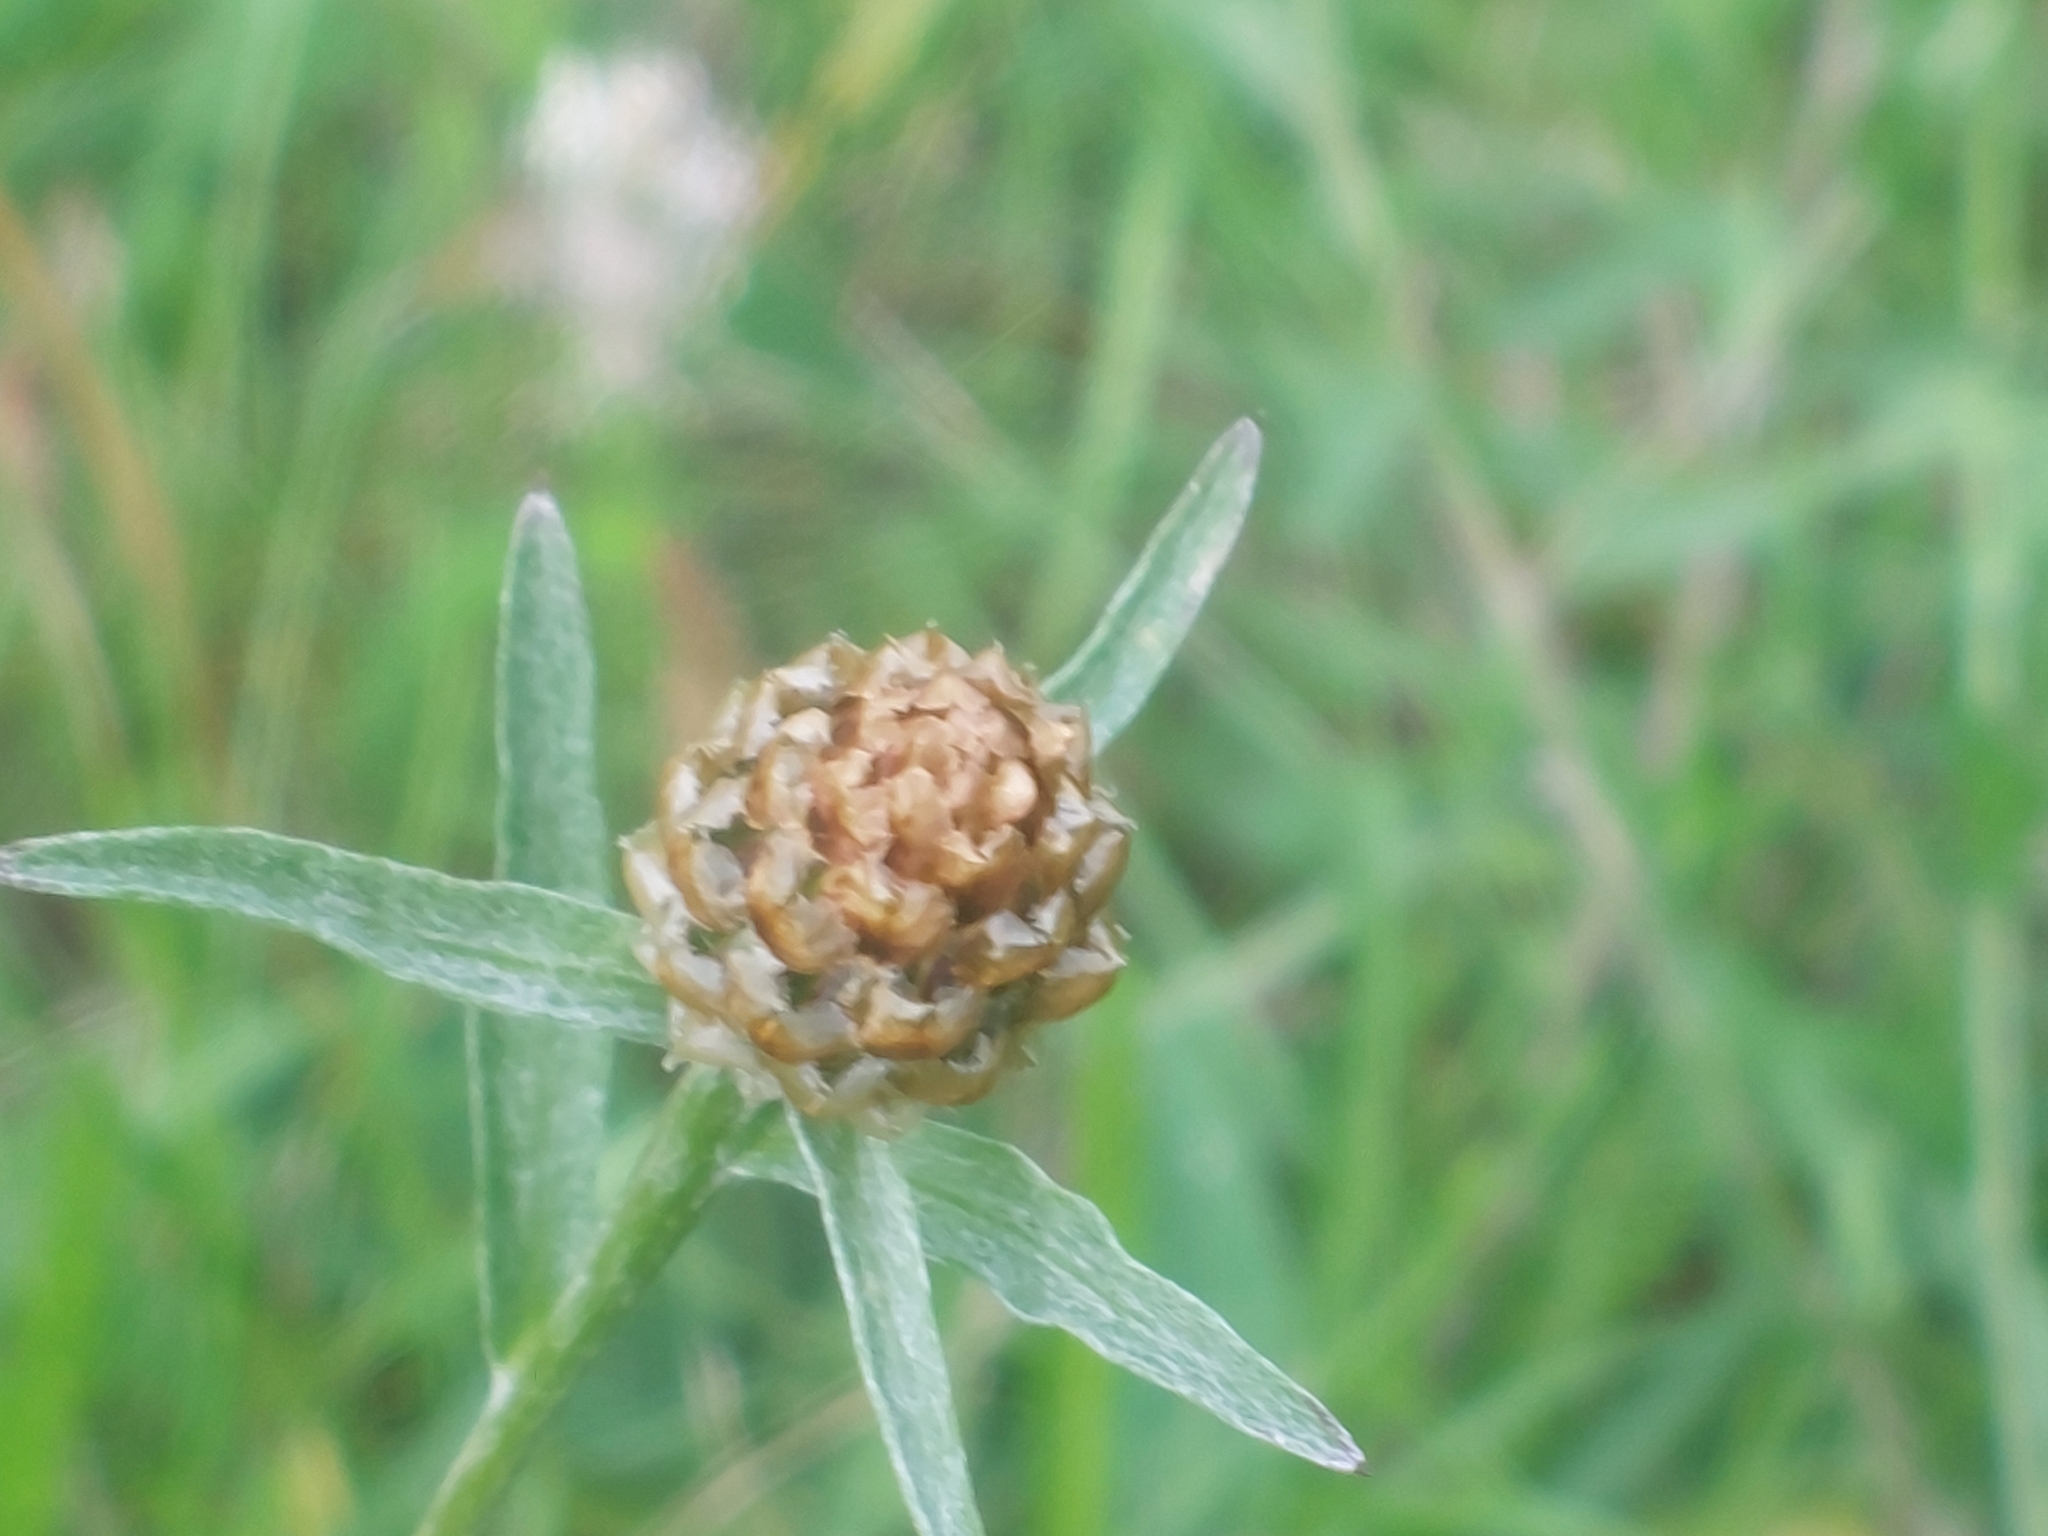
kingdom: Plantae
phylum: Tracheophyta
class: Magnoliopsida
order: Asterales
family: Asteraceae
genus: Centaurea
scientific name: Centaurea jacea
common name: Brown knapweed
